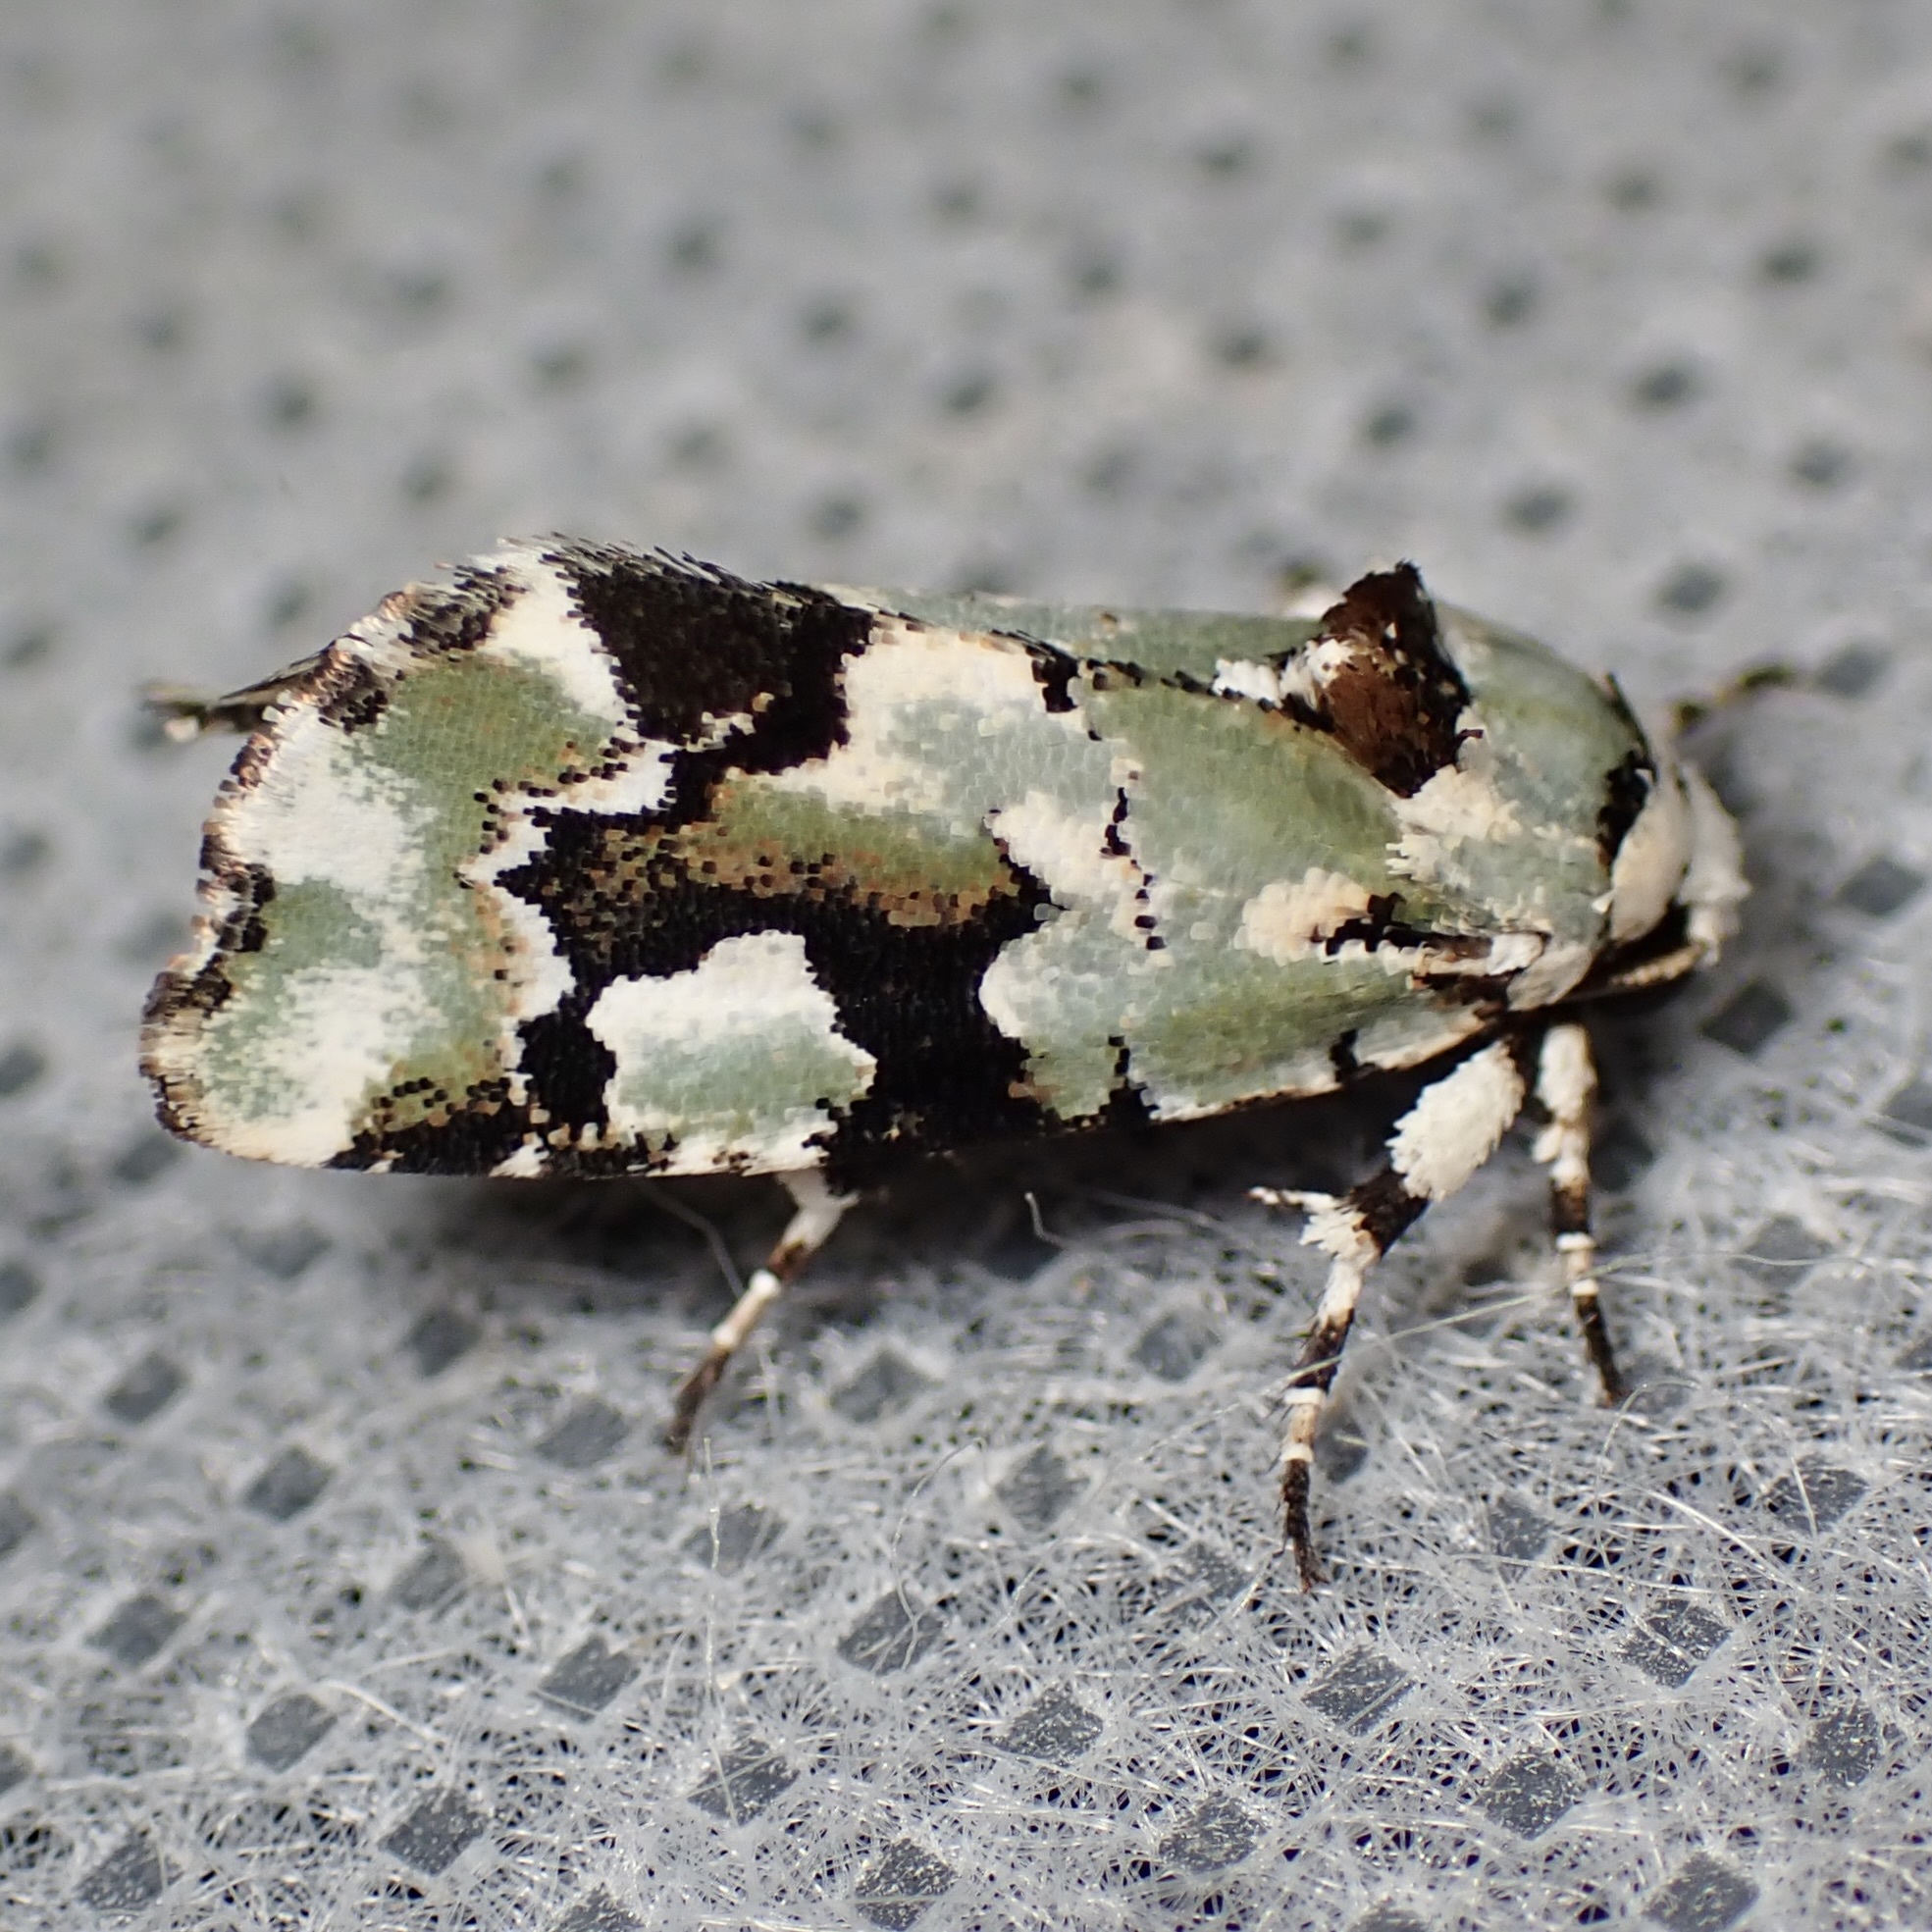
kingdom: Animalia
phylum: Arthropoda
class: Insecta
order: Lepidoptera
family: Noctuidae
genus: Emarginea
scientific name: Emarginea percara
